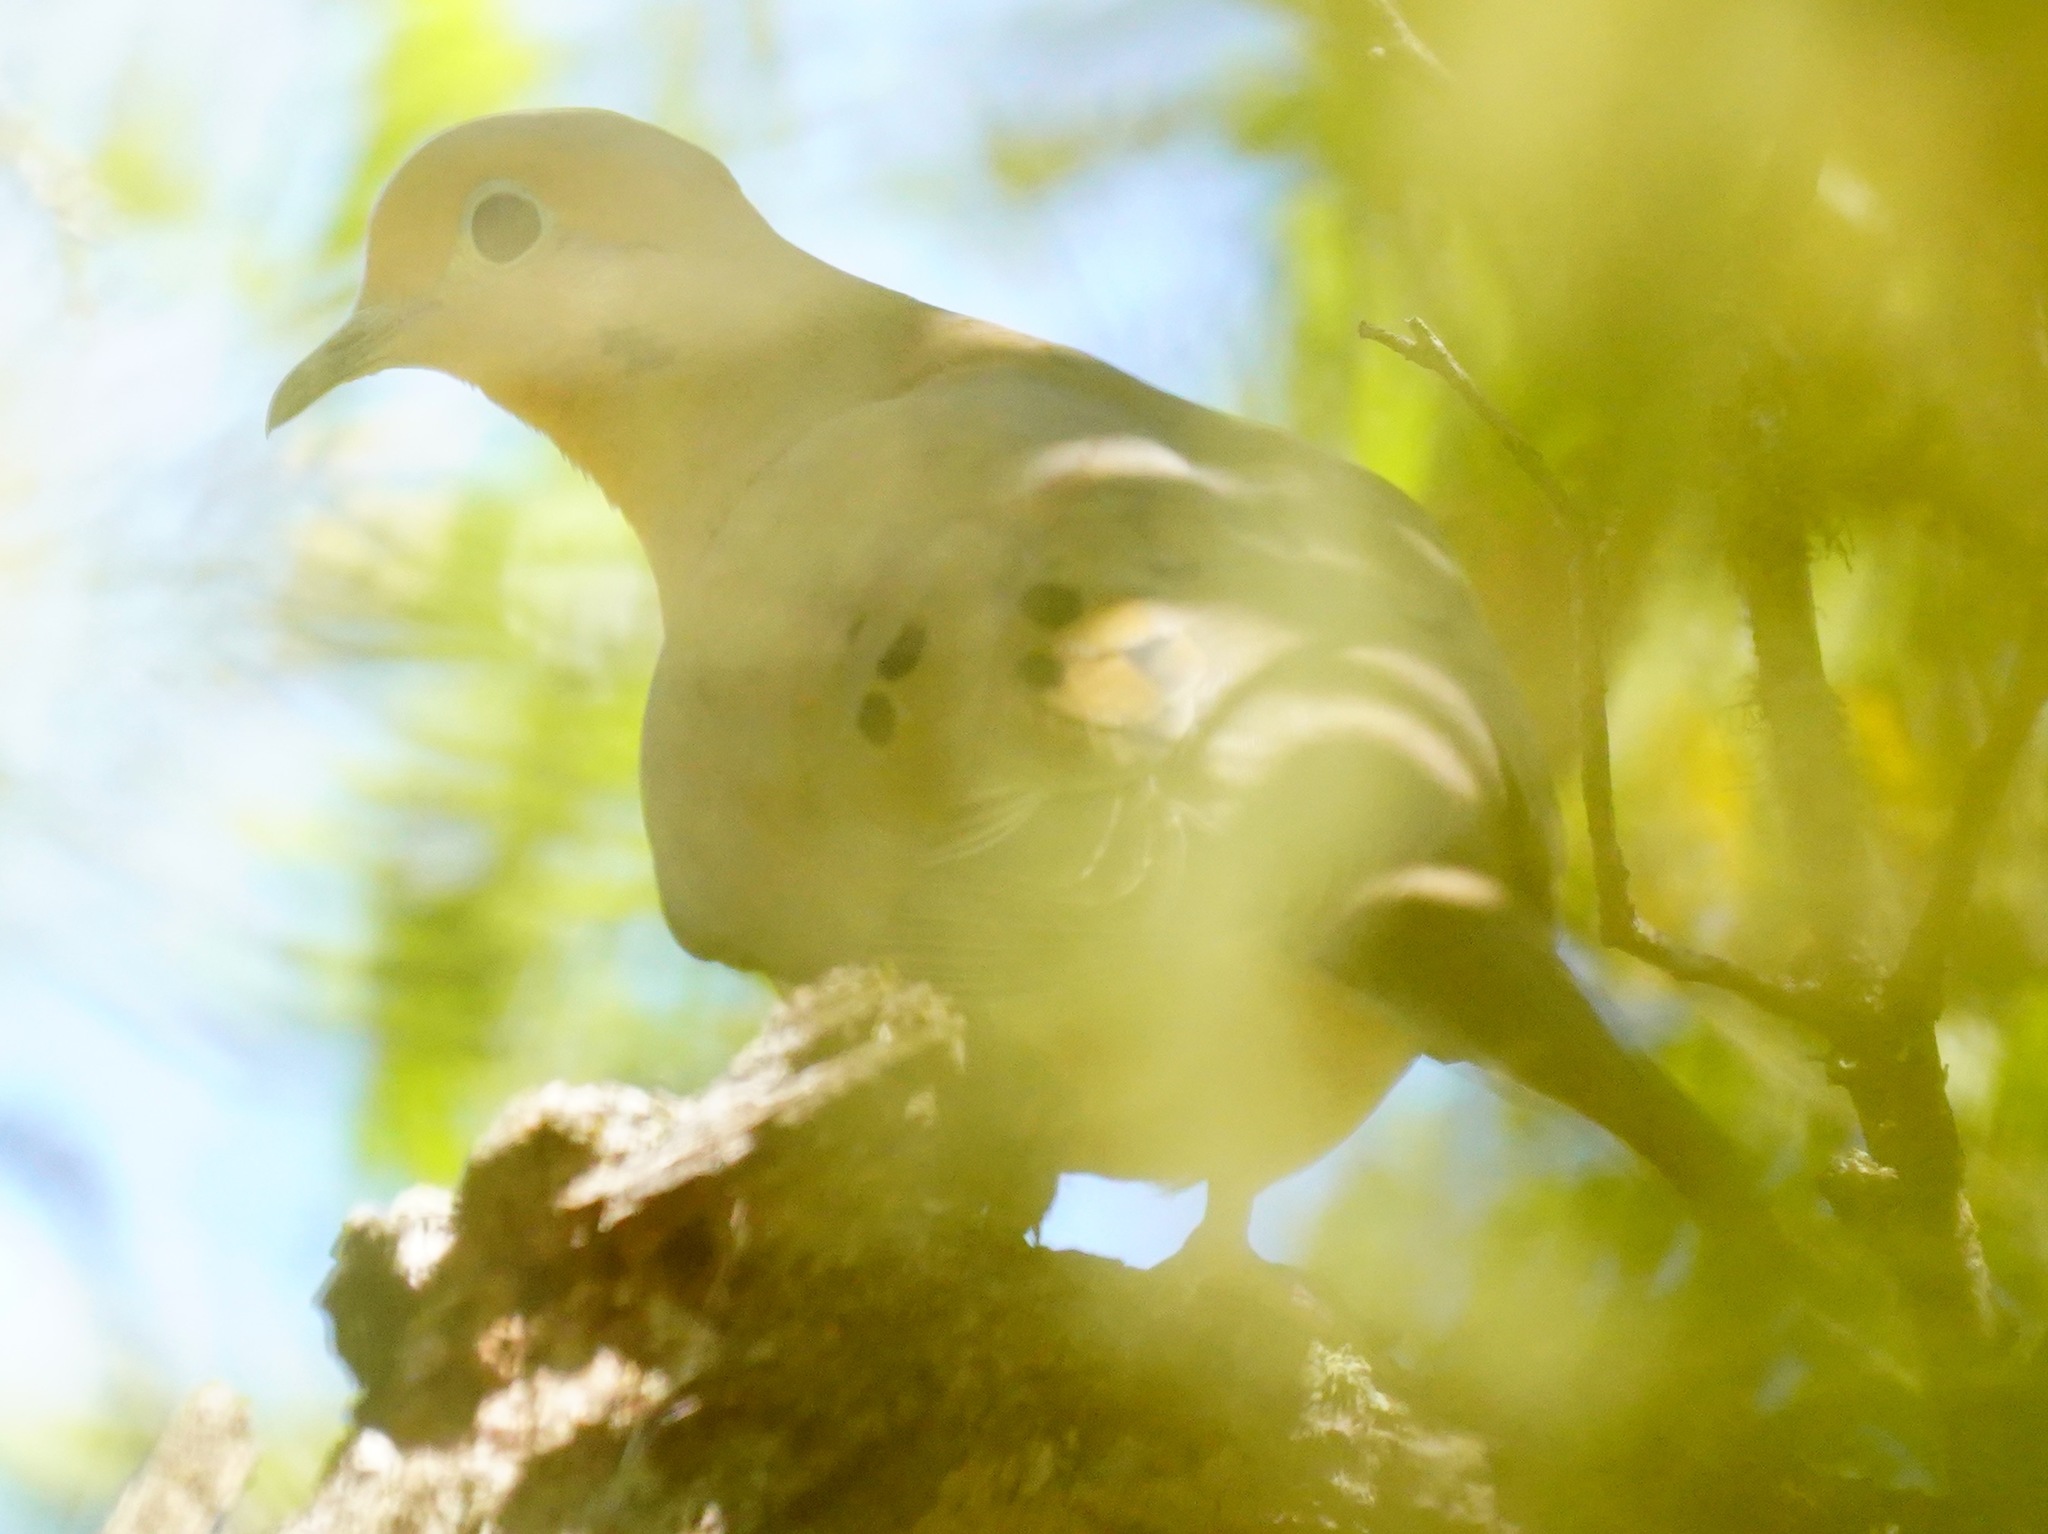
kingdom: Animalia
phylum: Chordata
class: Aves
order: Columbiformes
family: Columbidae
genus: Zenaida
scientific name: Zenaida macroura
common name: Mourning dove
